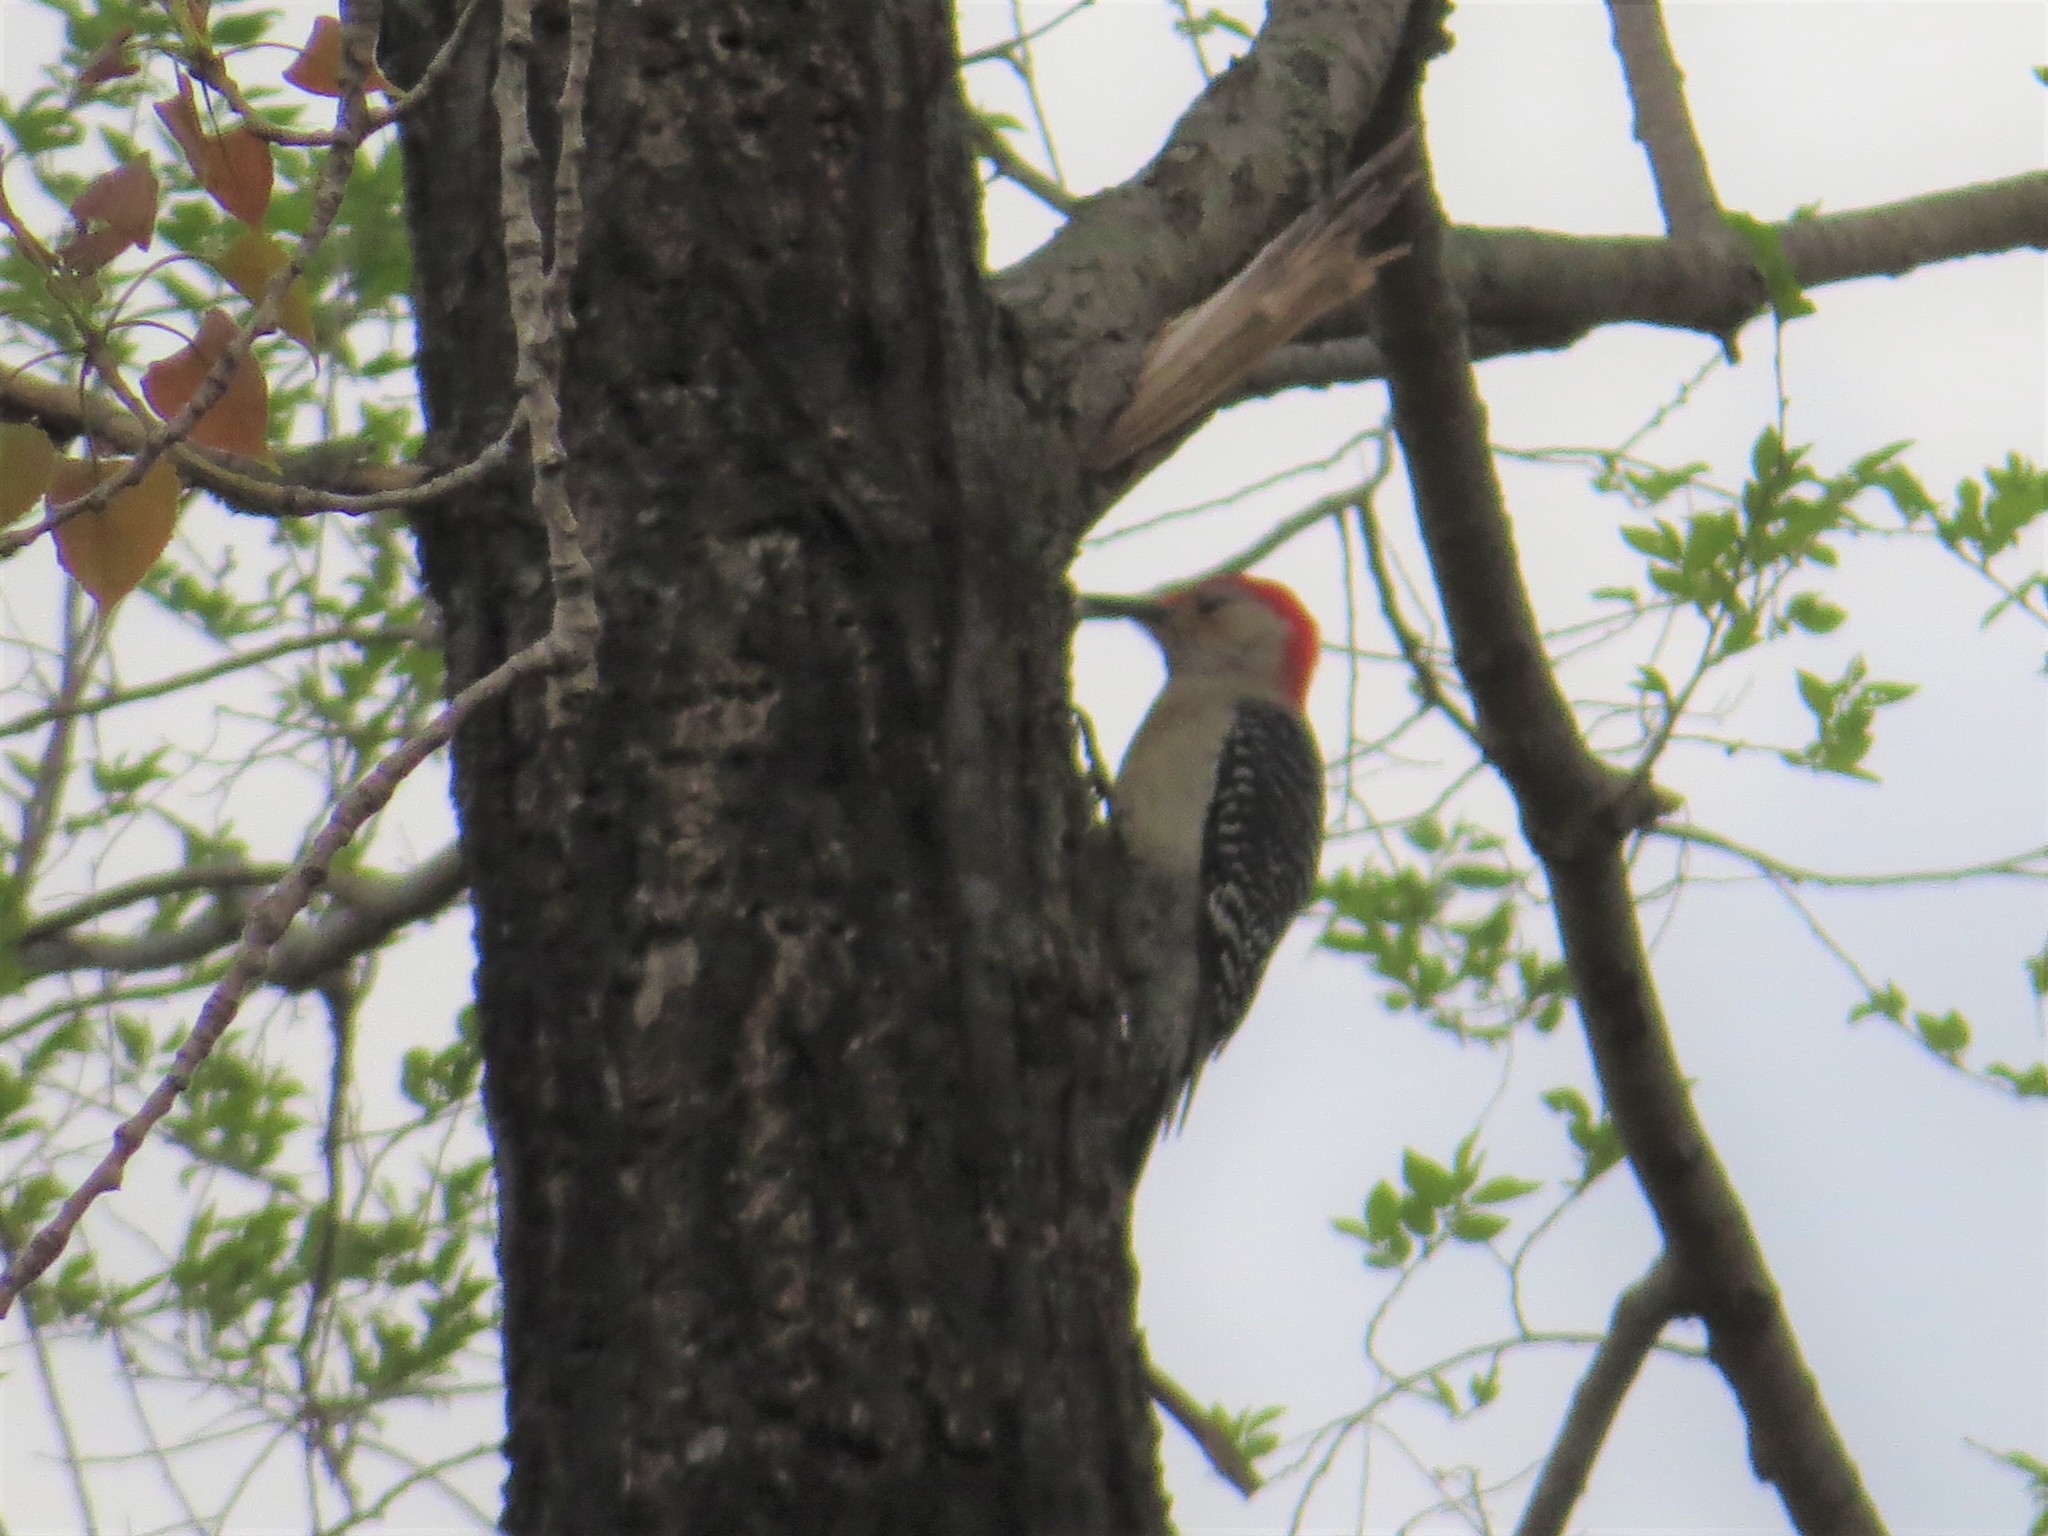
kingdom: Animalia
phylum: Chordata
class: Aves
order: Piciformes
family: Picidae
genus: Melanerpes
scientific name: Melanerpes carolinus
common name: Red-bellied woodpecker
